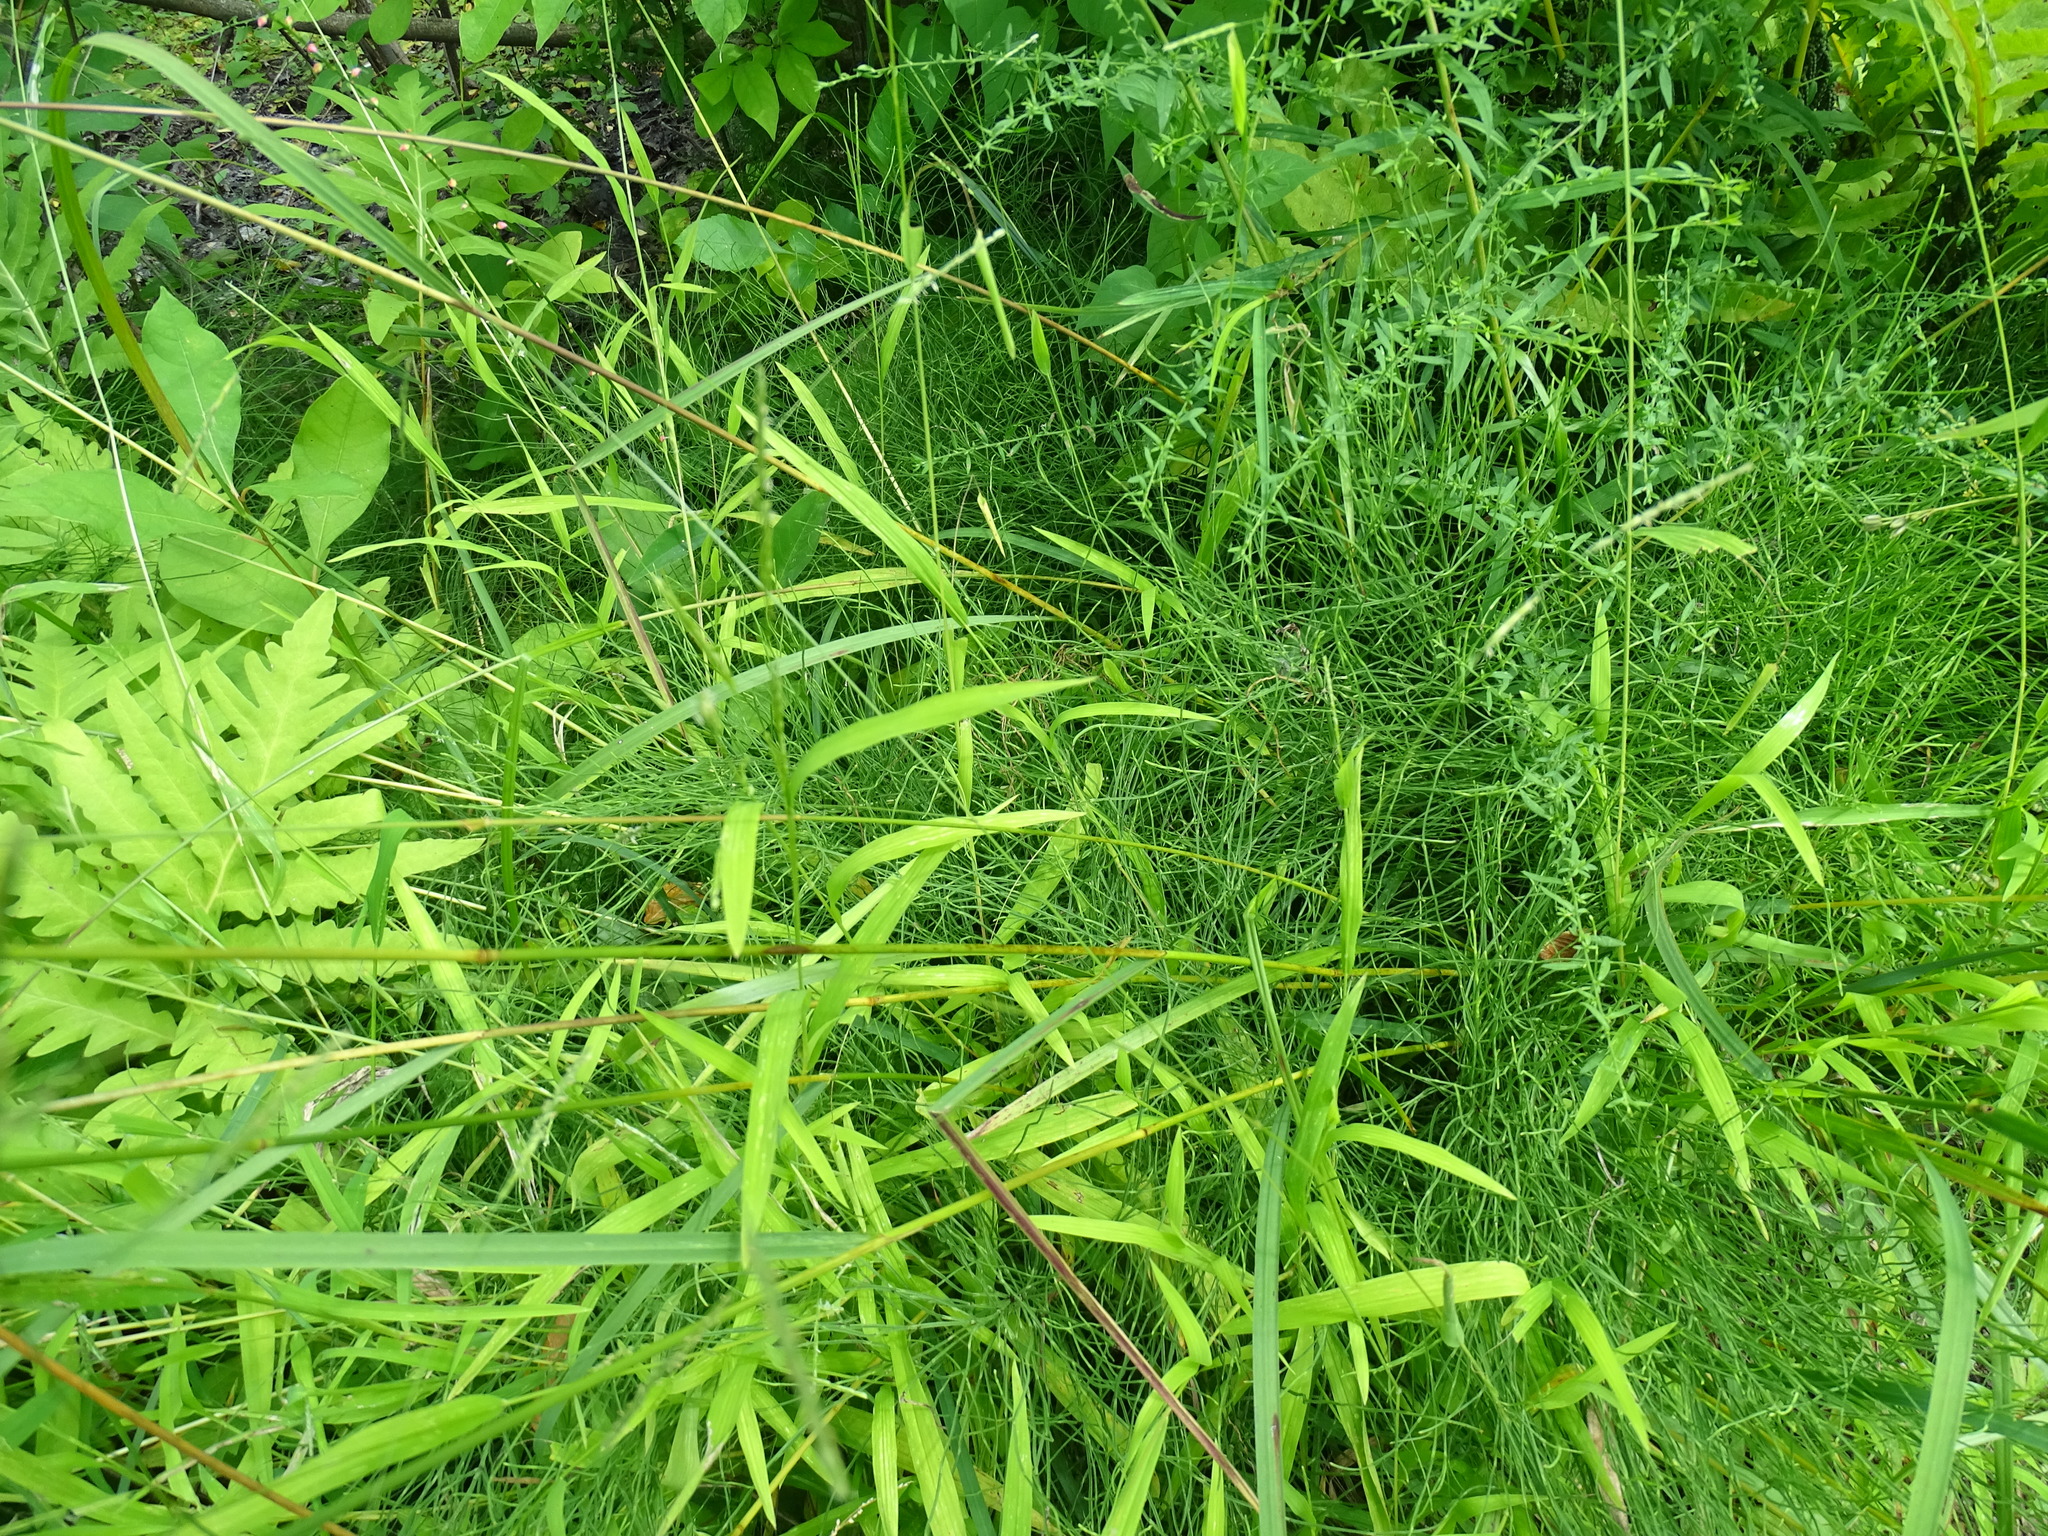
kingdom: Plantae
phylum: Tracheophyta
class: Liliopsida
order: Poales
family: Poaceae
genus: Leersia
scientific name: Leersia virginica
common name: White cutgrass
